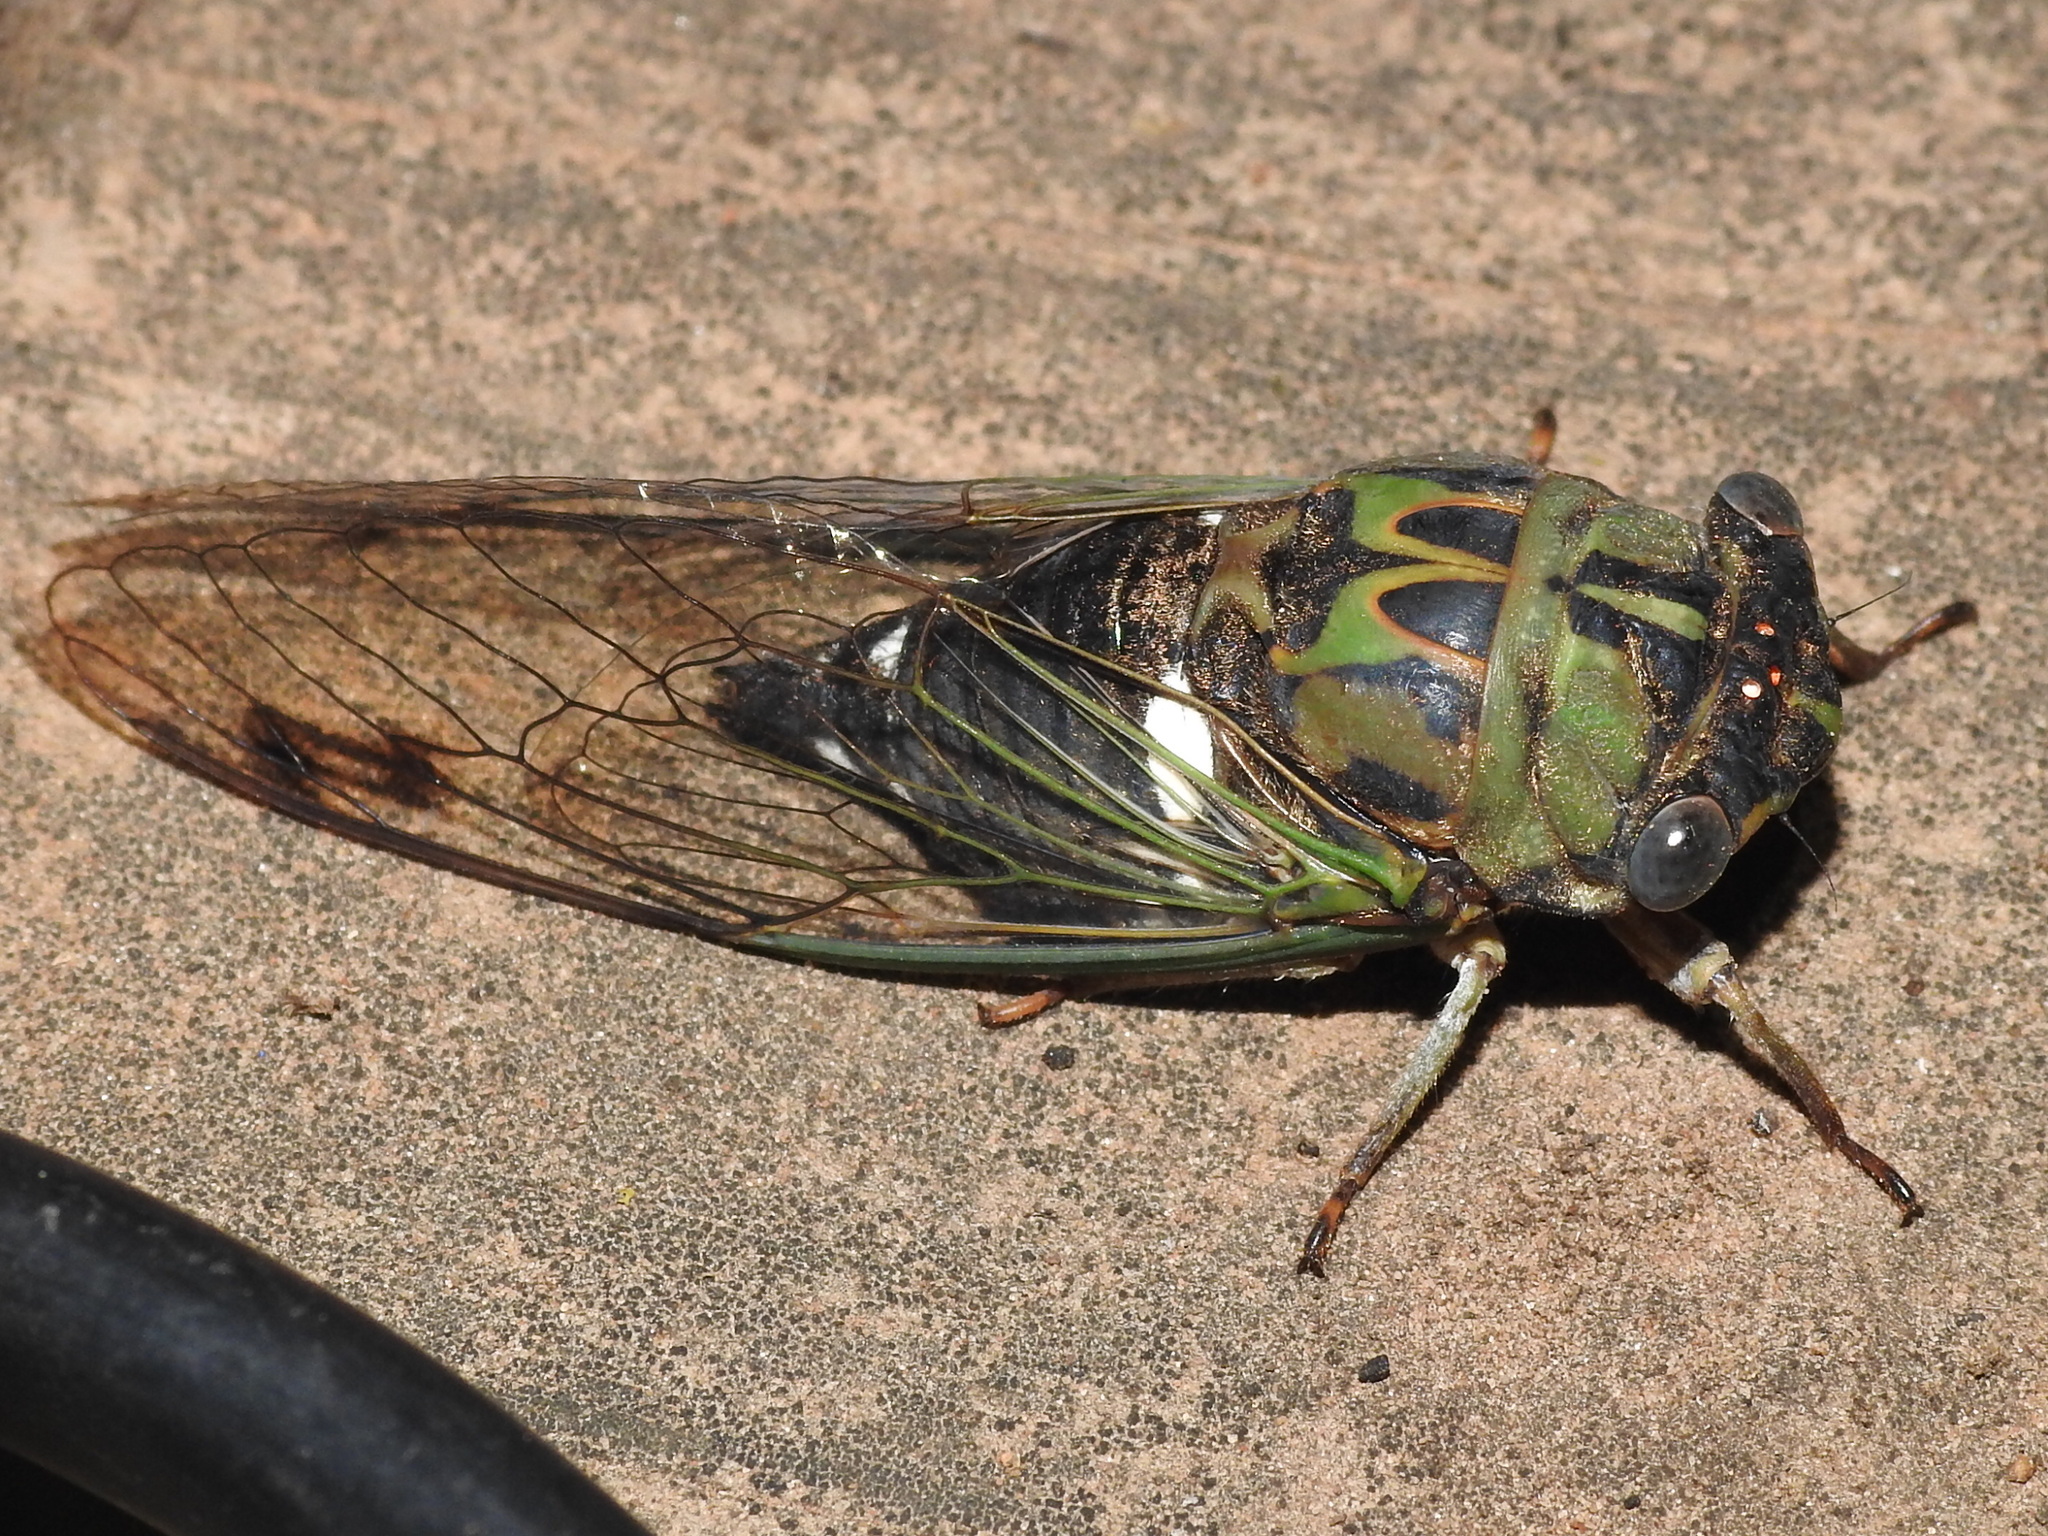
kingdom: Animalia
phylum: Arthropoda
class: Insecta
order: Hemiptera
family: Cicadidae
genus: Neotibicen
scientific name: Neotibicen pruinosus
